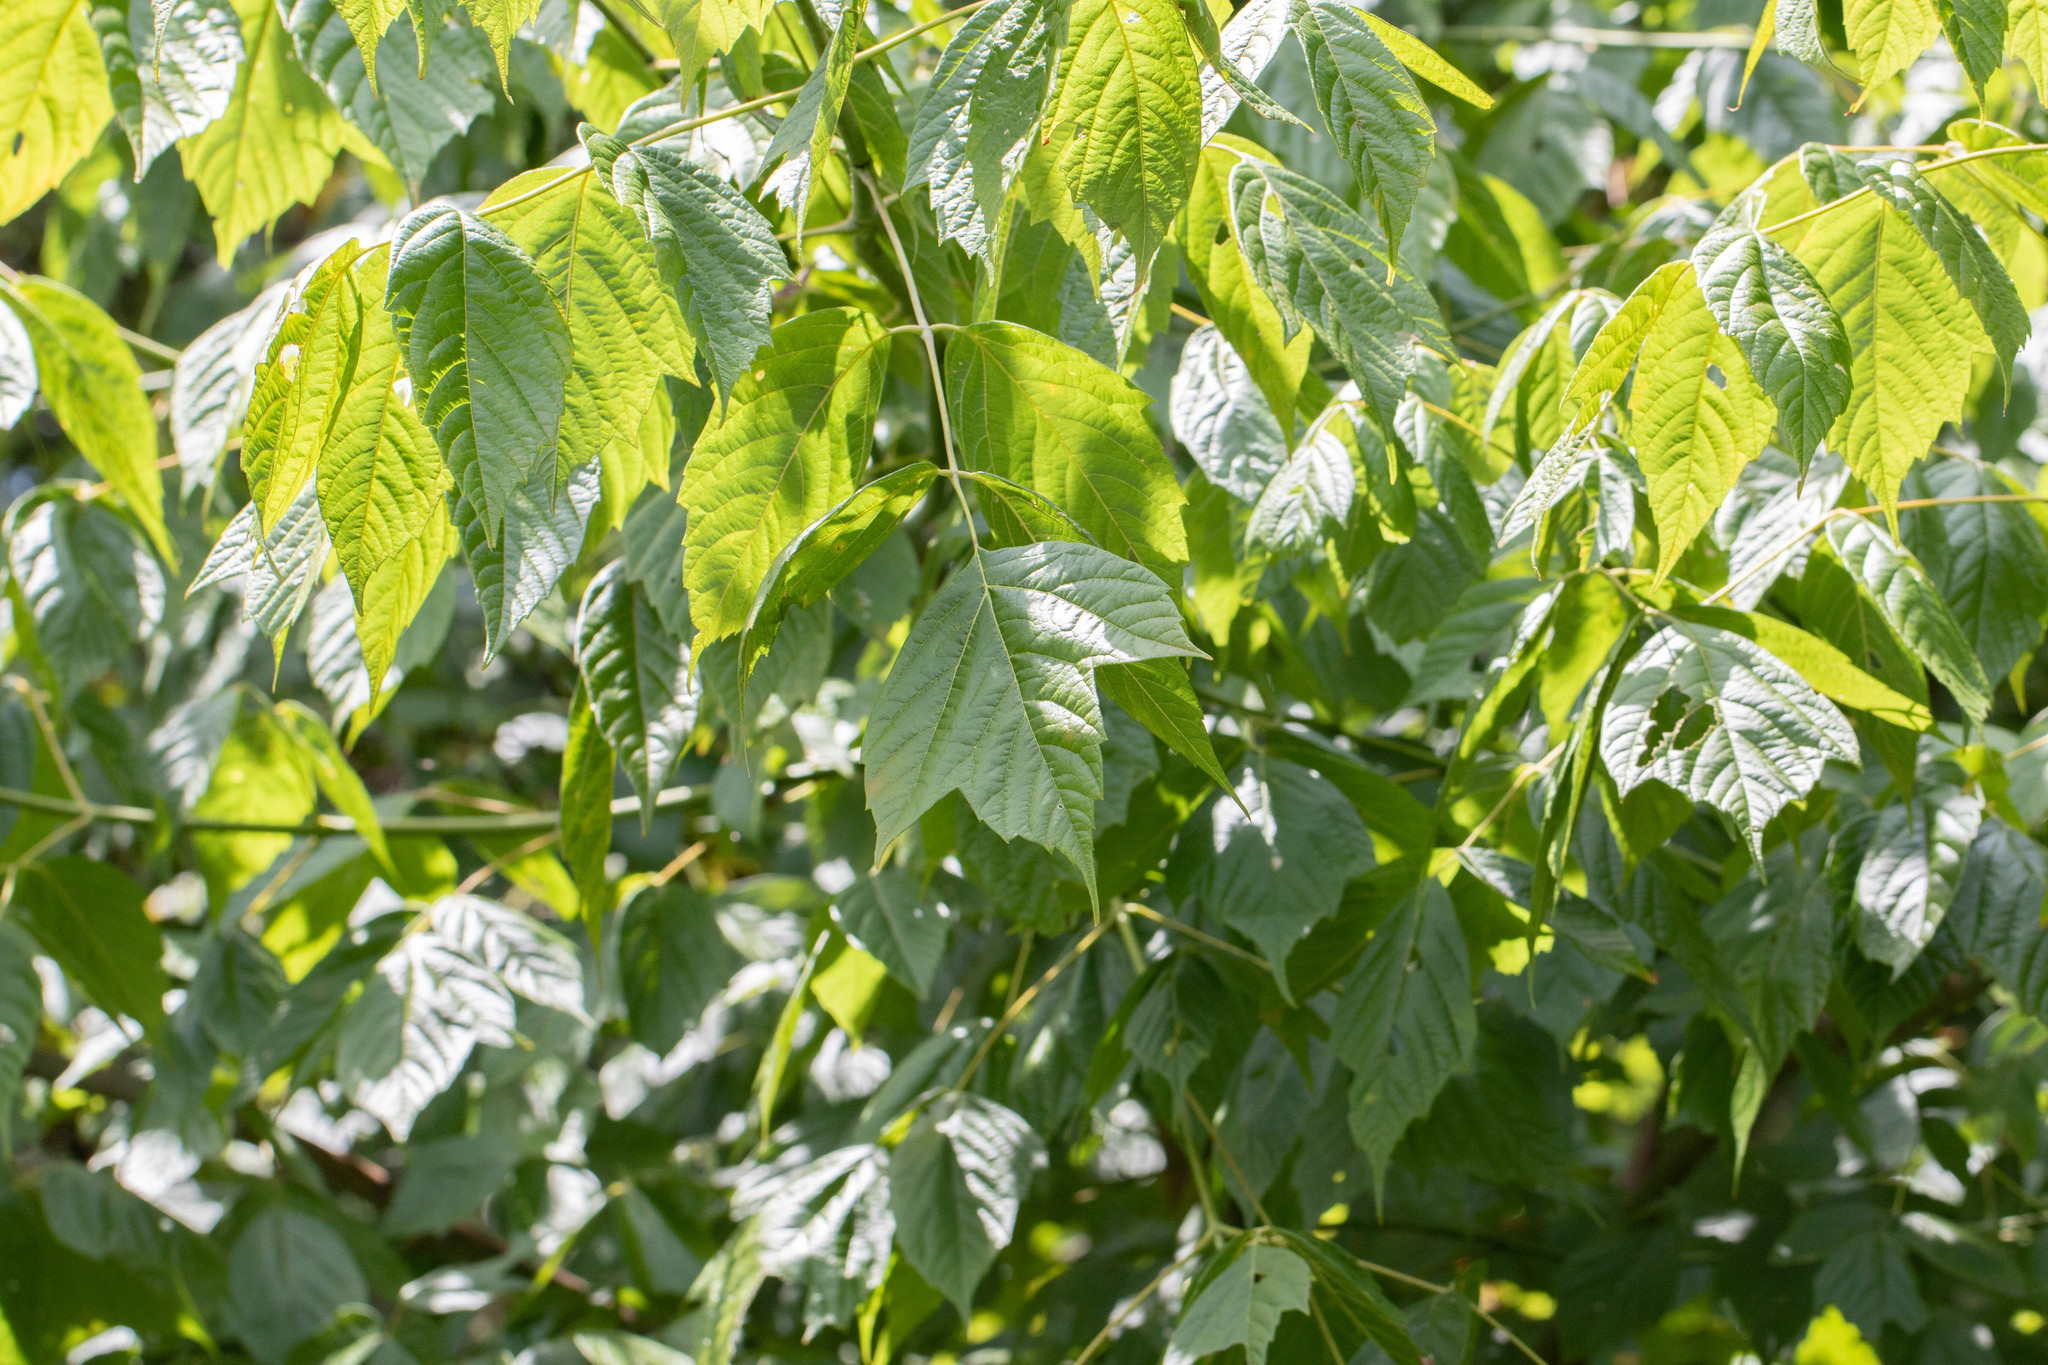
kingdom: Plantae
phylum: Tracheophyta
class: Magnoliopsida
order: Sapindales
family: Sapindaceae
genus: Acer
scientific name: Acer negundo
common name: Ashleaf maple
